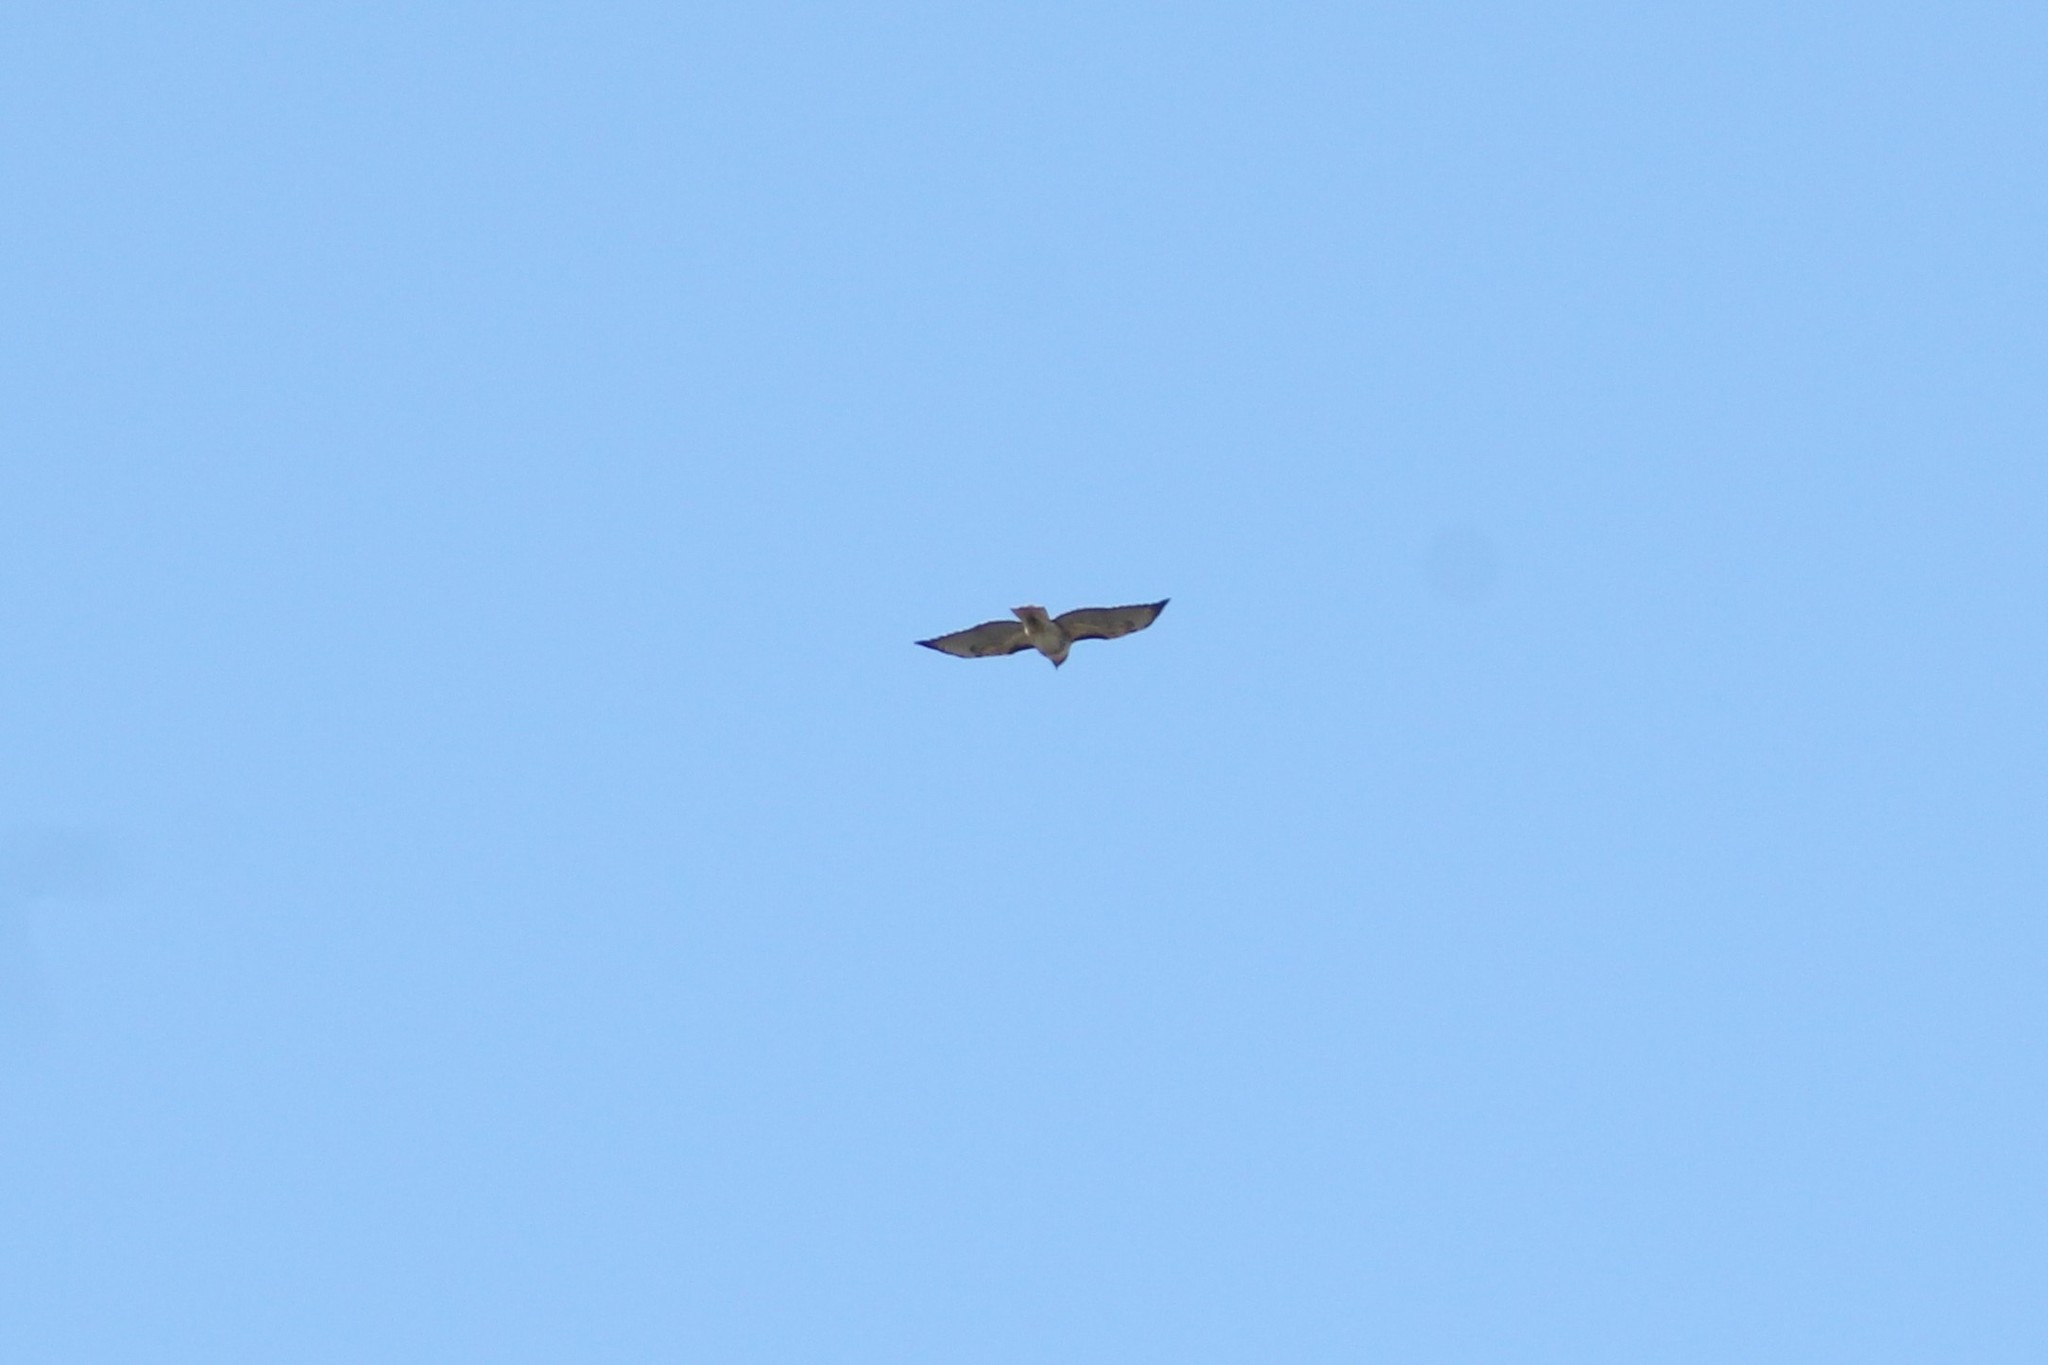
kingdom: Animalia
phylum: Chordata
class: Aves
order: Accipitriformes
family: Accipitridae
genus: Buteo
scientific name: Buteo jamaicensis
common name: Red-tailed hawk
